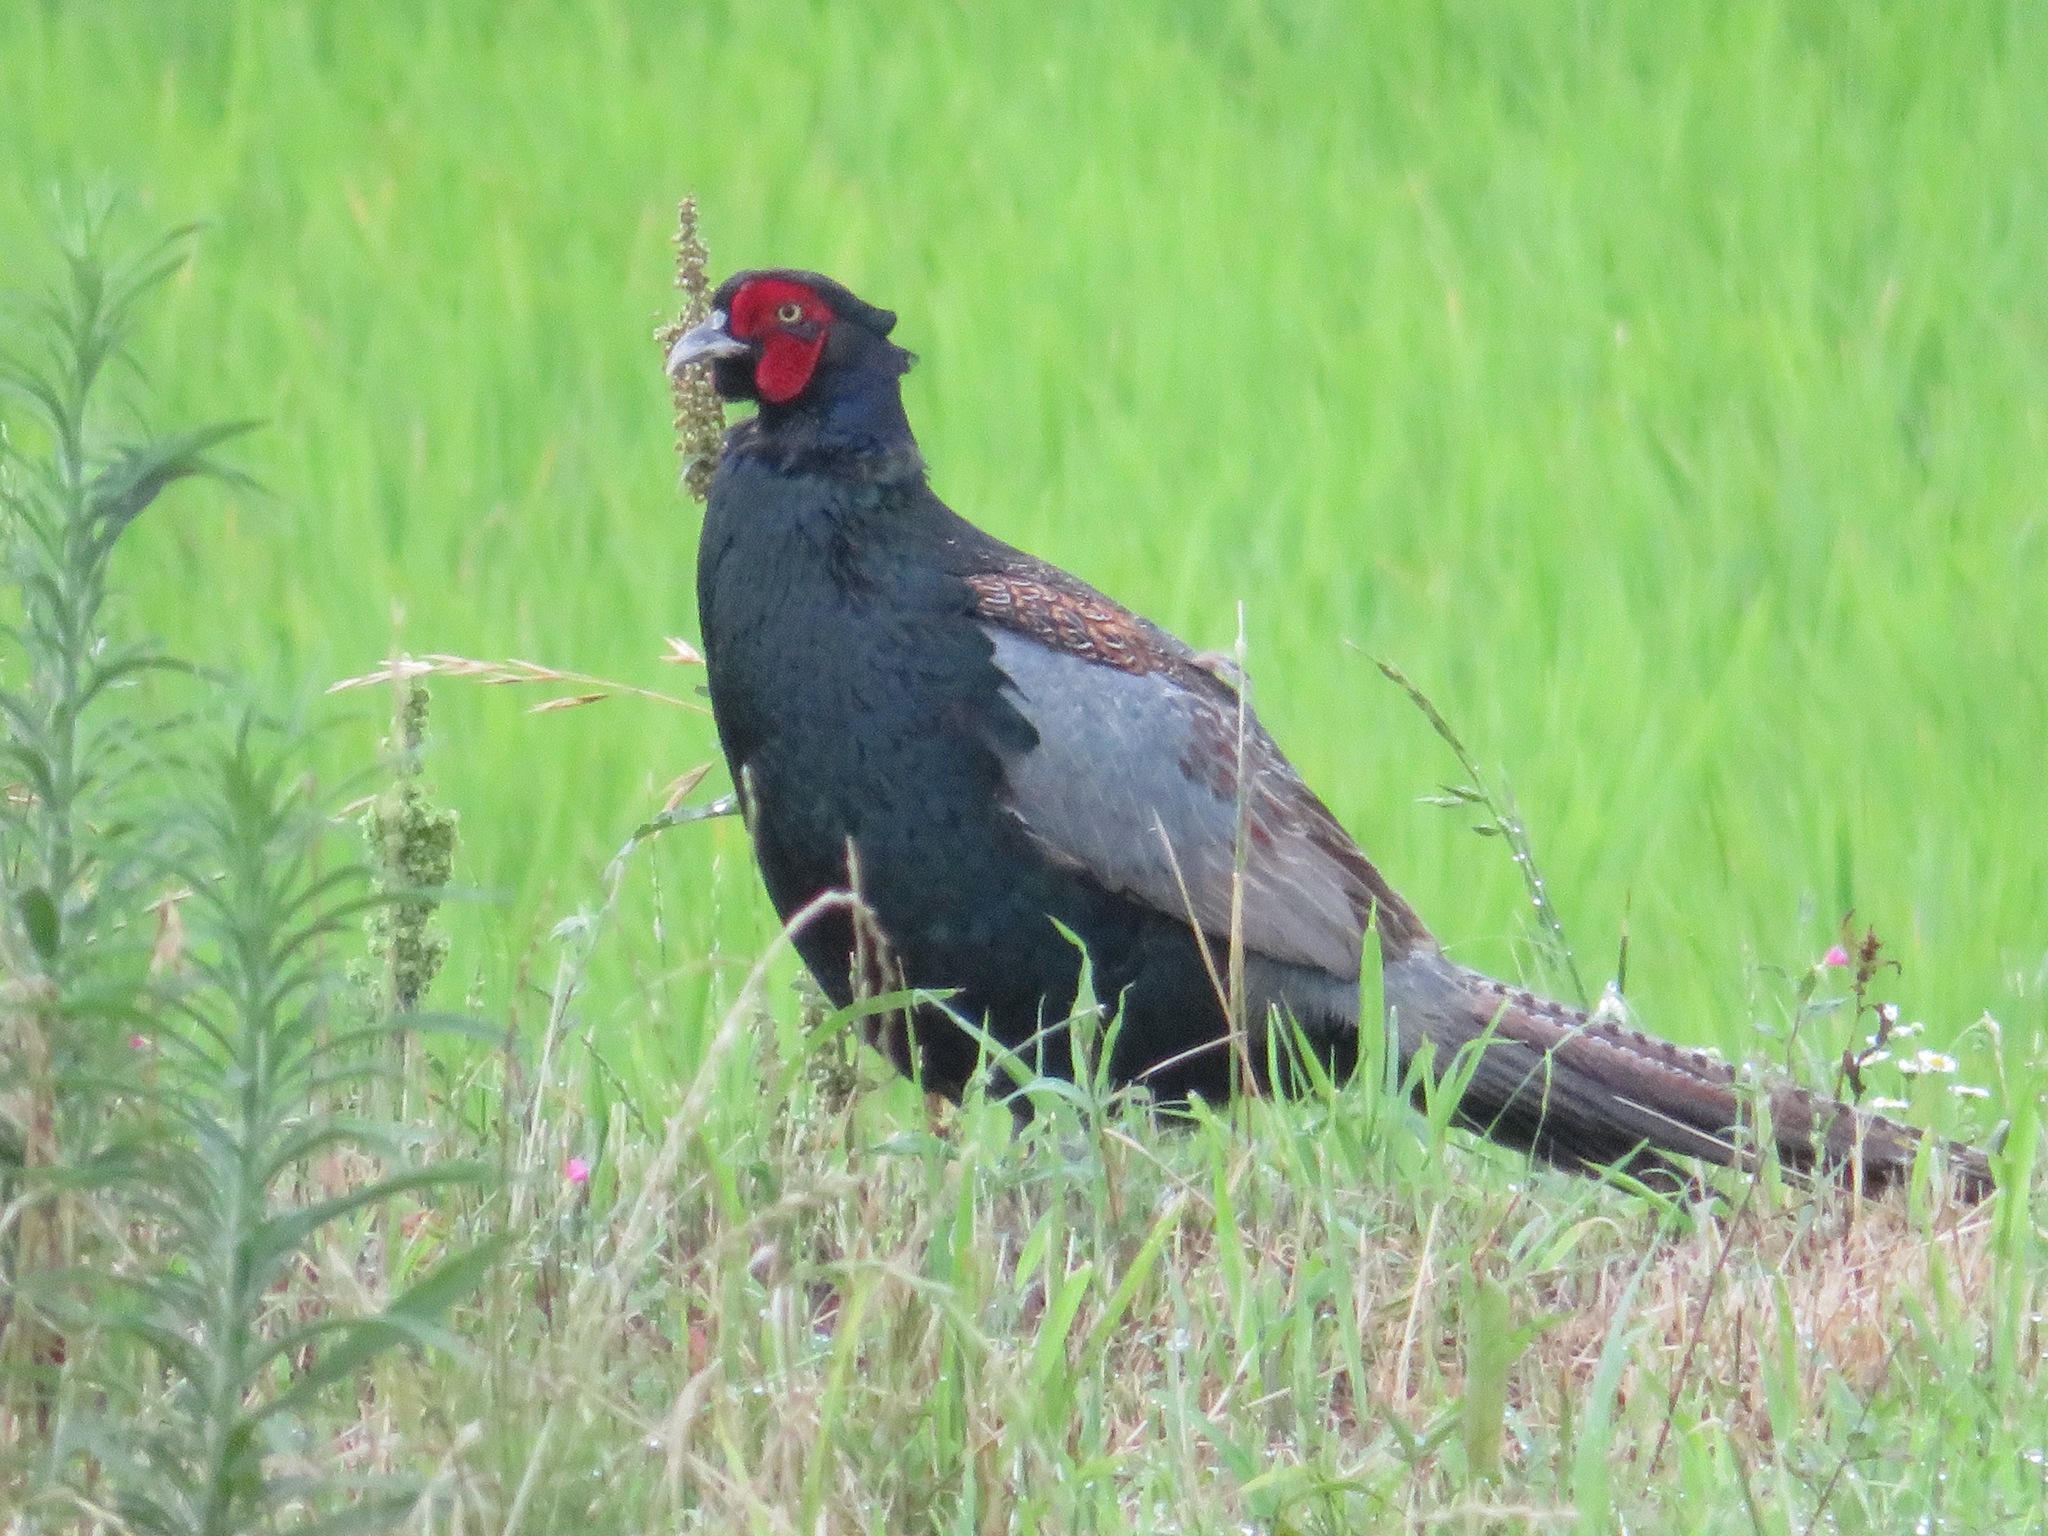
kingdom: Animalia
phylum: Chordata
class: Aves
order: Galliformes
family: Phasianidae
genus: Phasianus
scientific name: Phasianus versicolor
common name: Green pheasant
